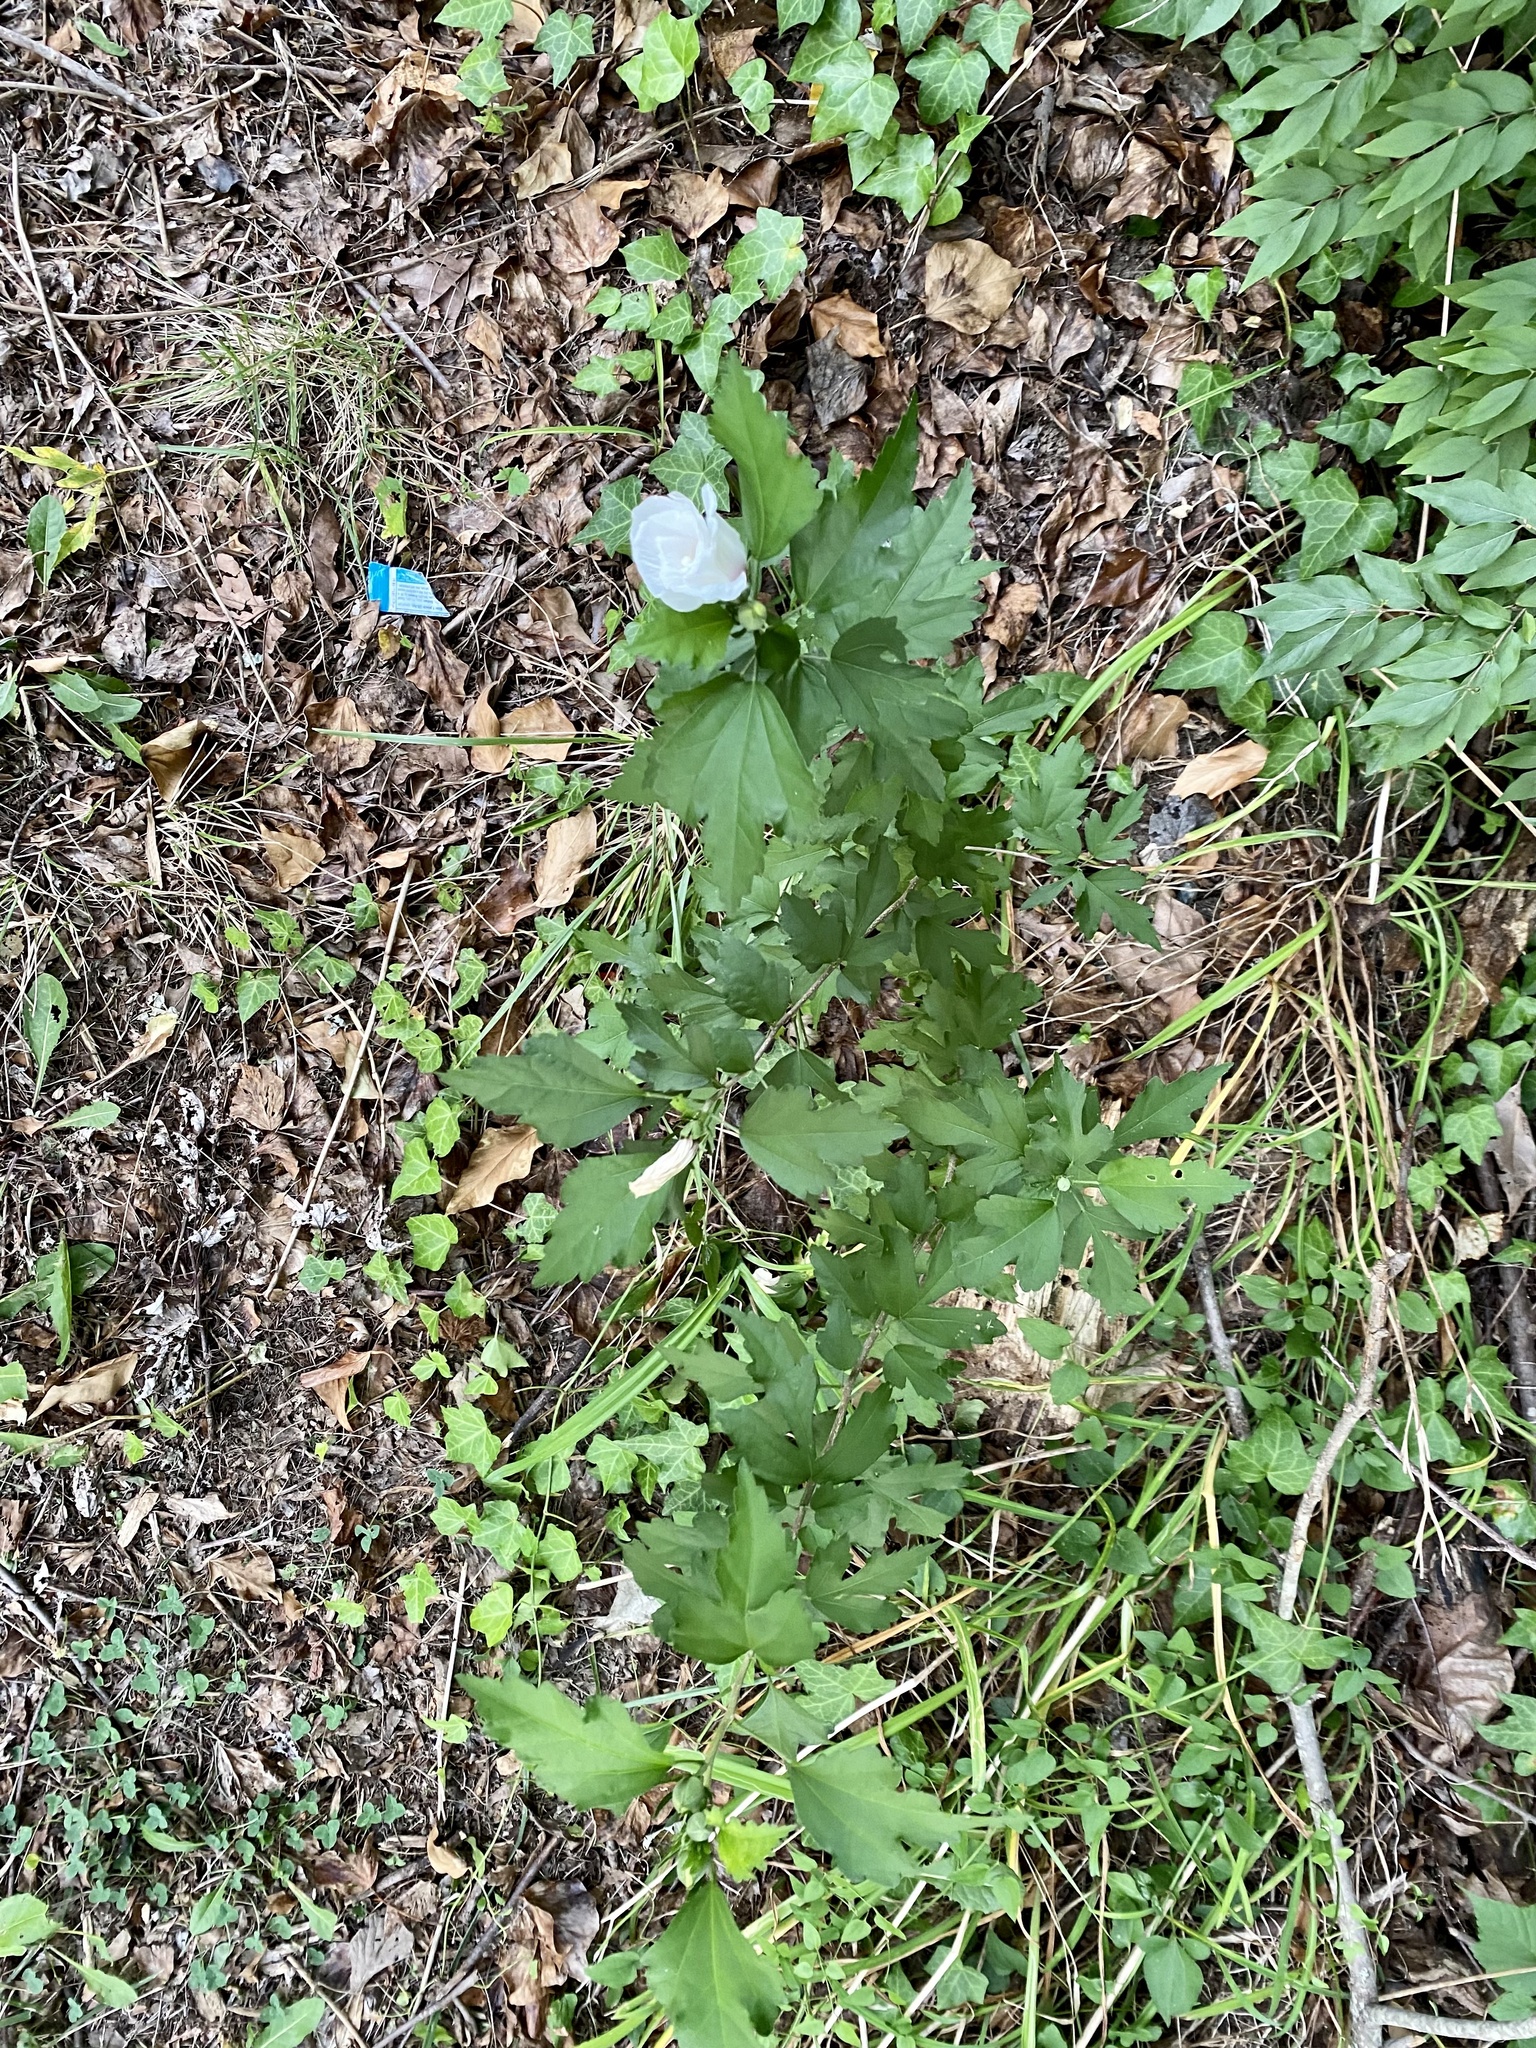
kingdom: Plantae
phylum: Tracheophyta
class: Magnoliopsida
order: Malvales
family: Malvaceae
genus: Hibiscus
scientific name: Hibiscus syriacus
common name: Syrian ketmia
